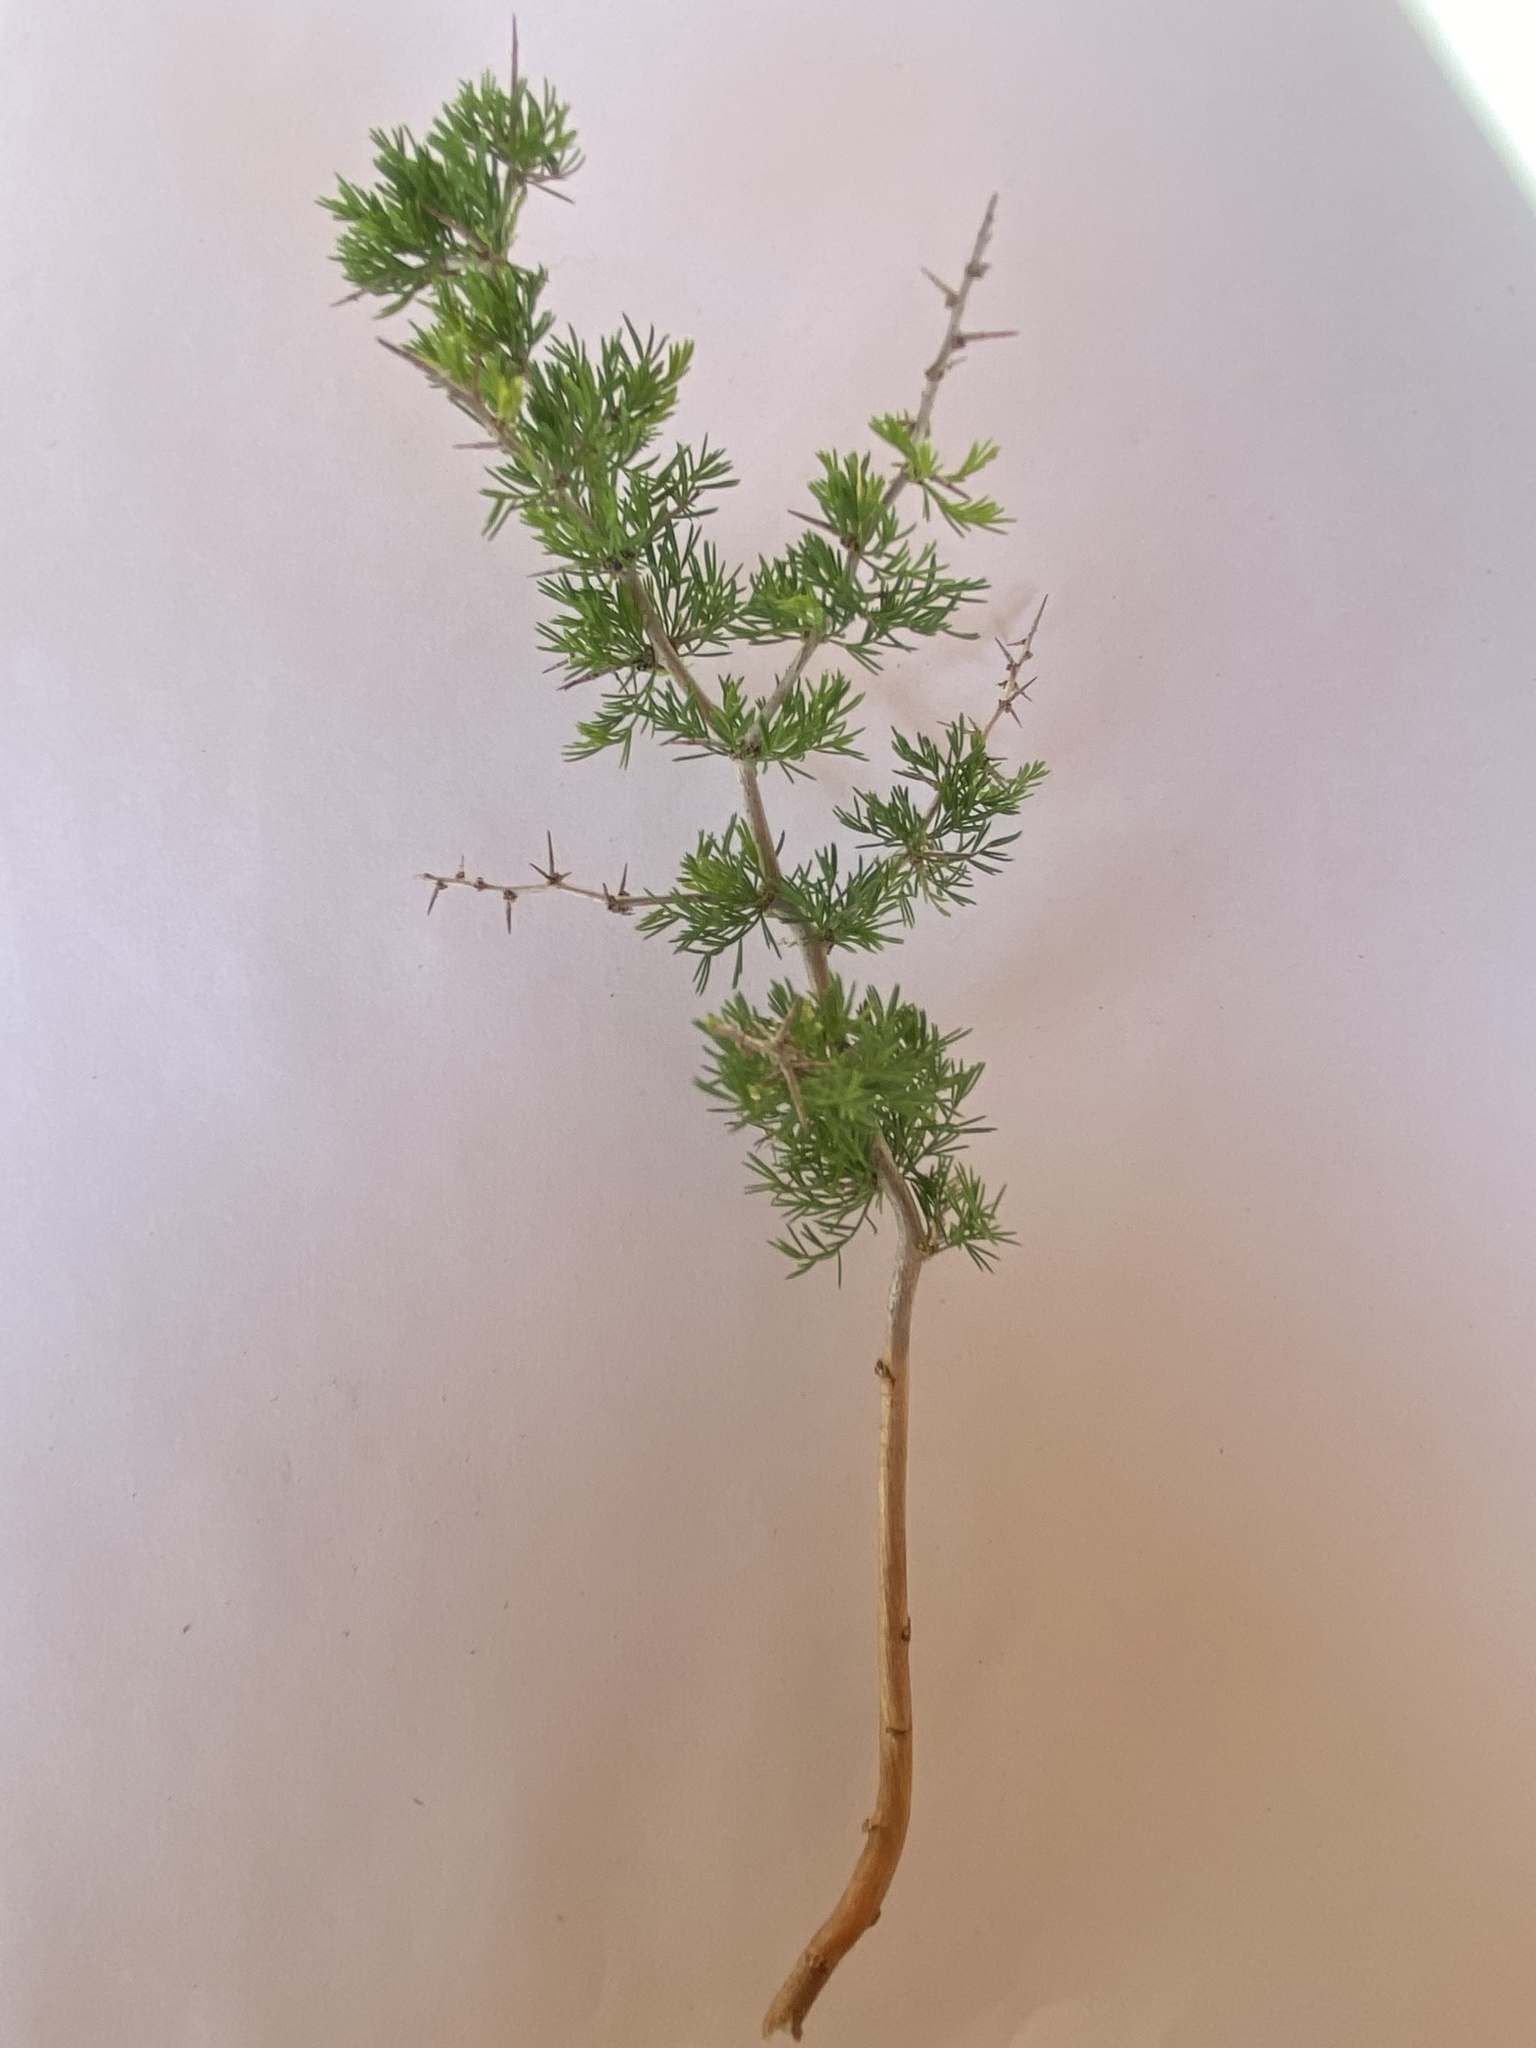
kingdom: Plantae
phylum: Tracheophyta
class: Liliopsida
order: Asparagales
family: Asparagaceae
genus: Asparagus
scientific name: Asparagus suaveolens
